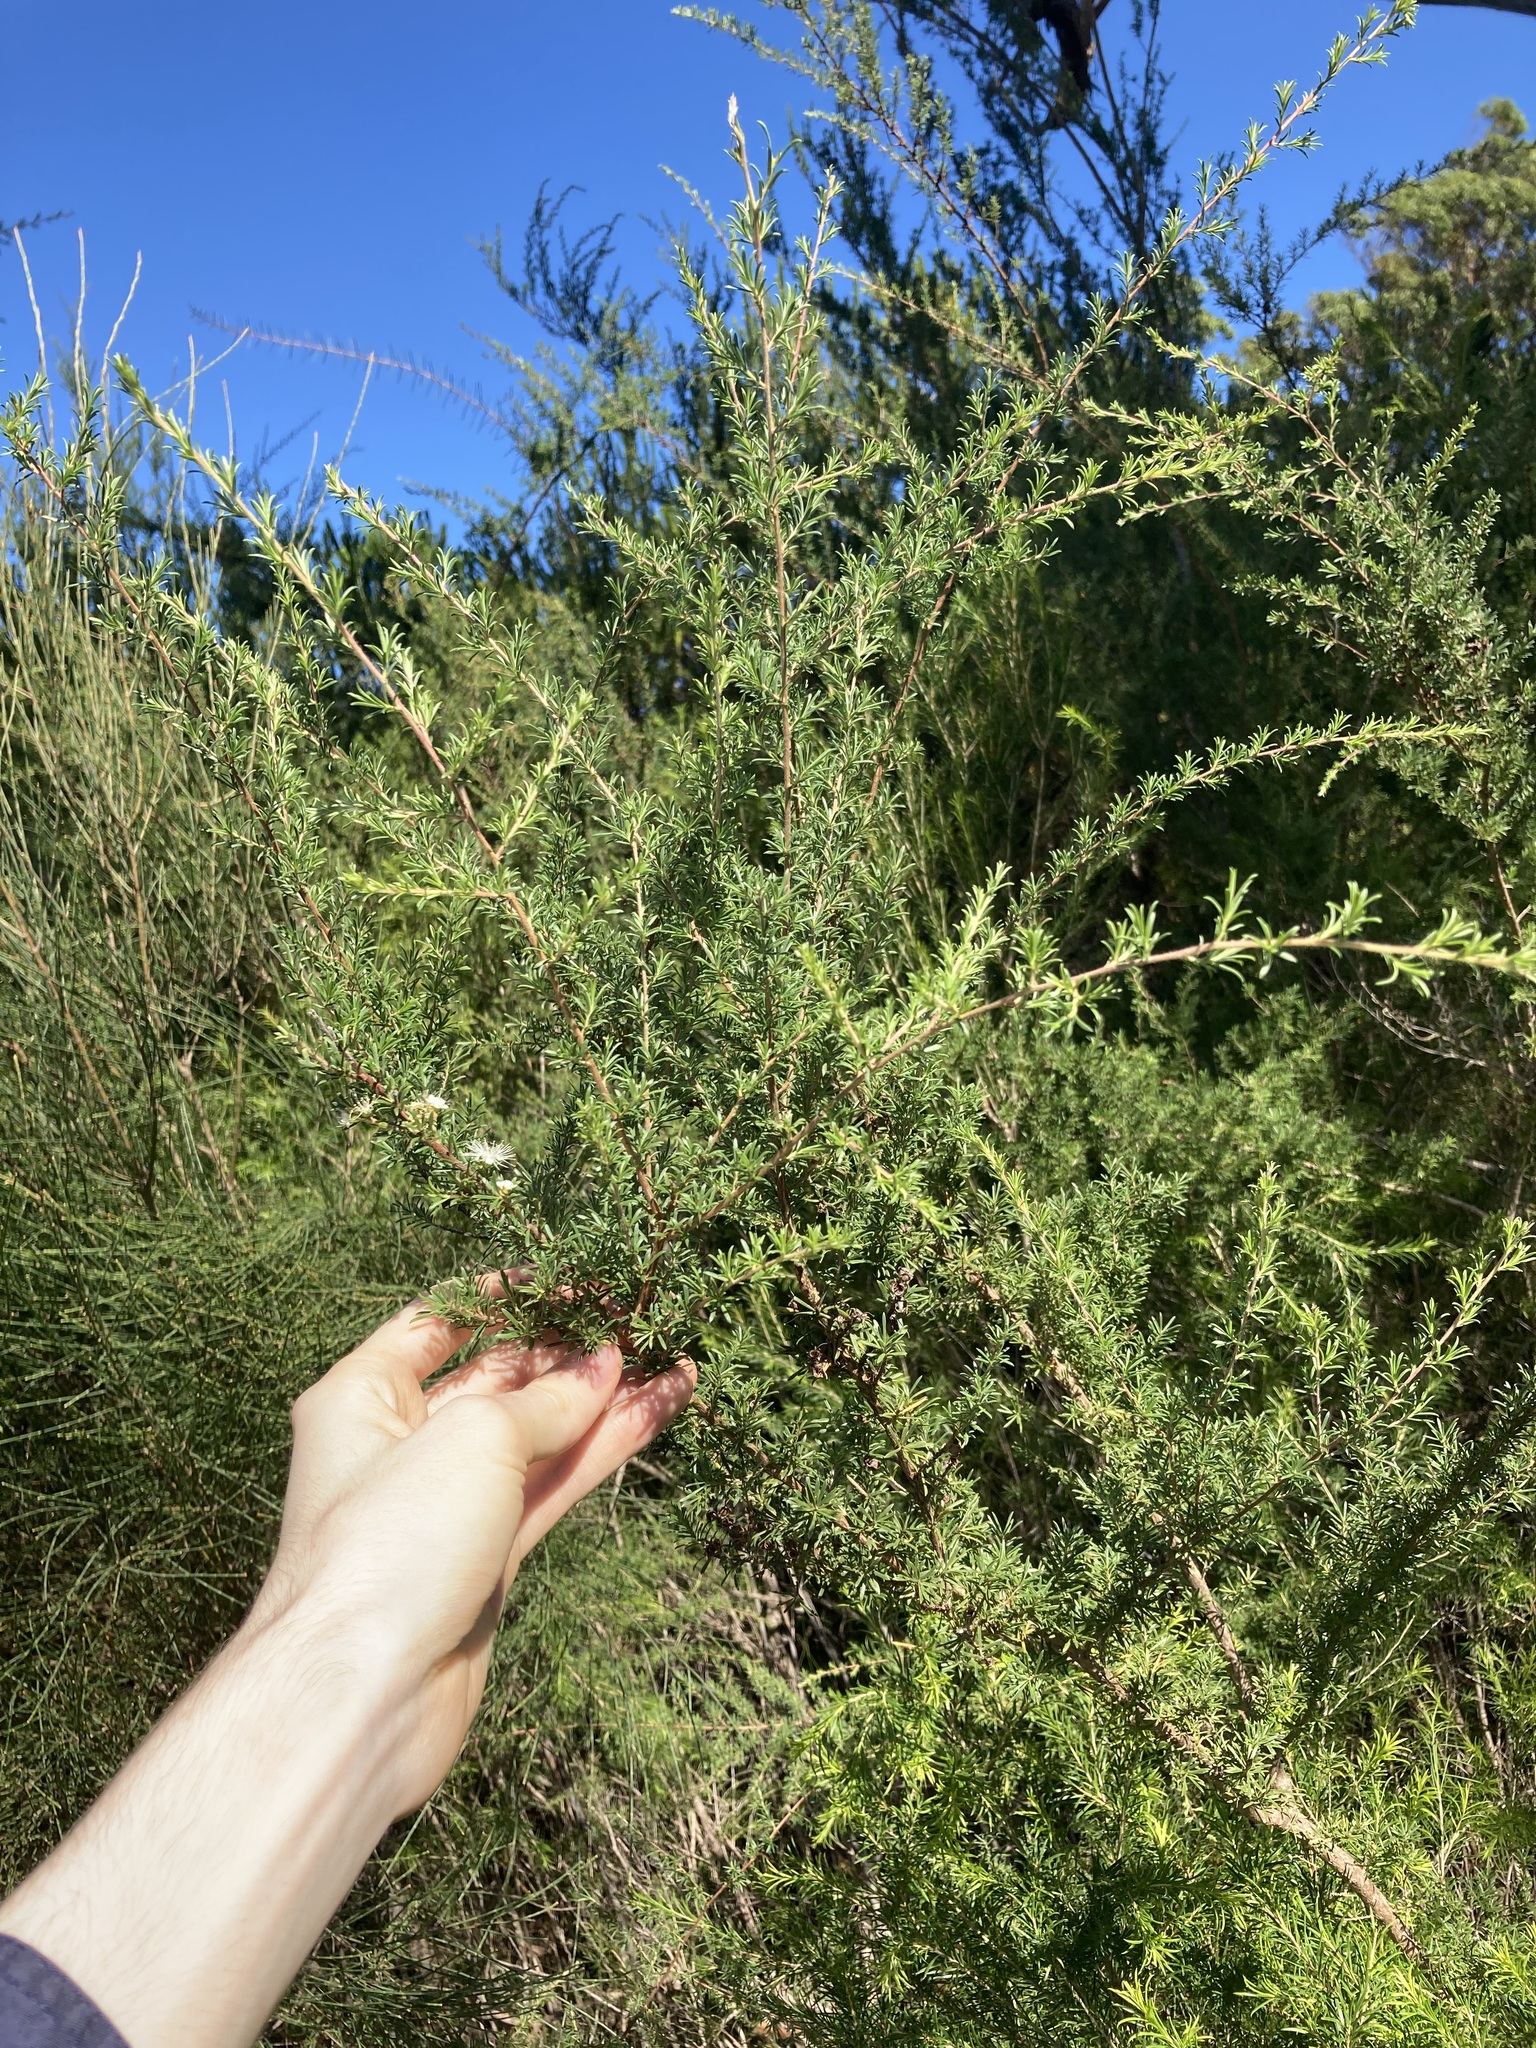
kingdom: Plantae
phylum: Tracheophyta
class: Magnoliopsida
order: Myrtales
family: Myrtaceae
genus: Kunzea
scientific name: Kunzea ambigua
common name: Tickbush
